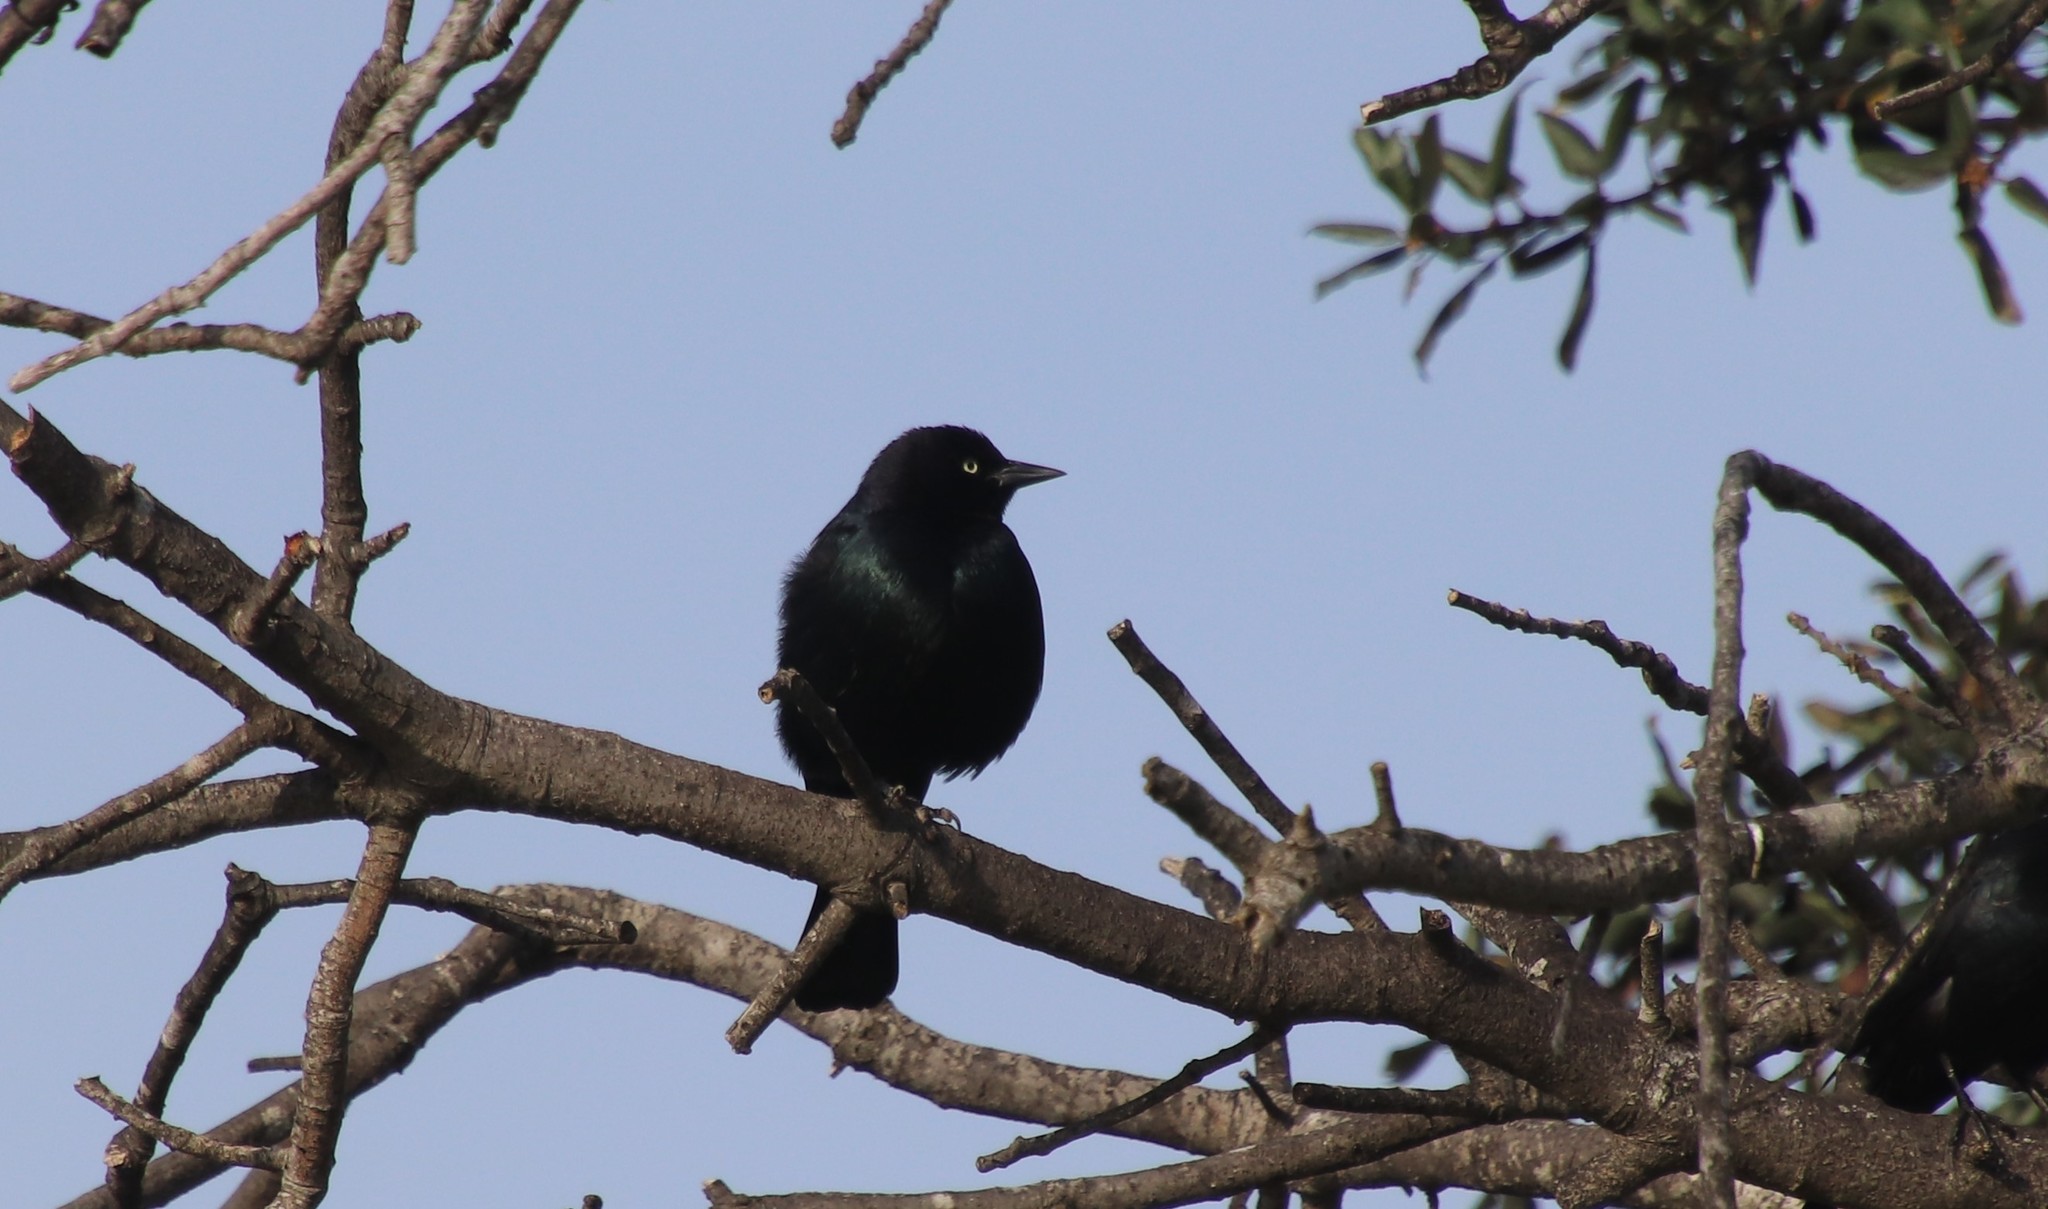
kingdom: Animalia
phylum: Chordata
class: Aves
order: Passeriformes
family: Icteridae
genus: Euphagus
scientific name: Euphagus cyanocephalus
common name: Brewer's blackbird
